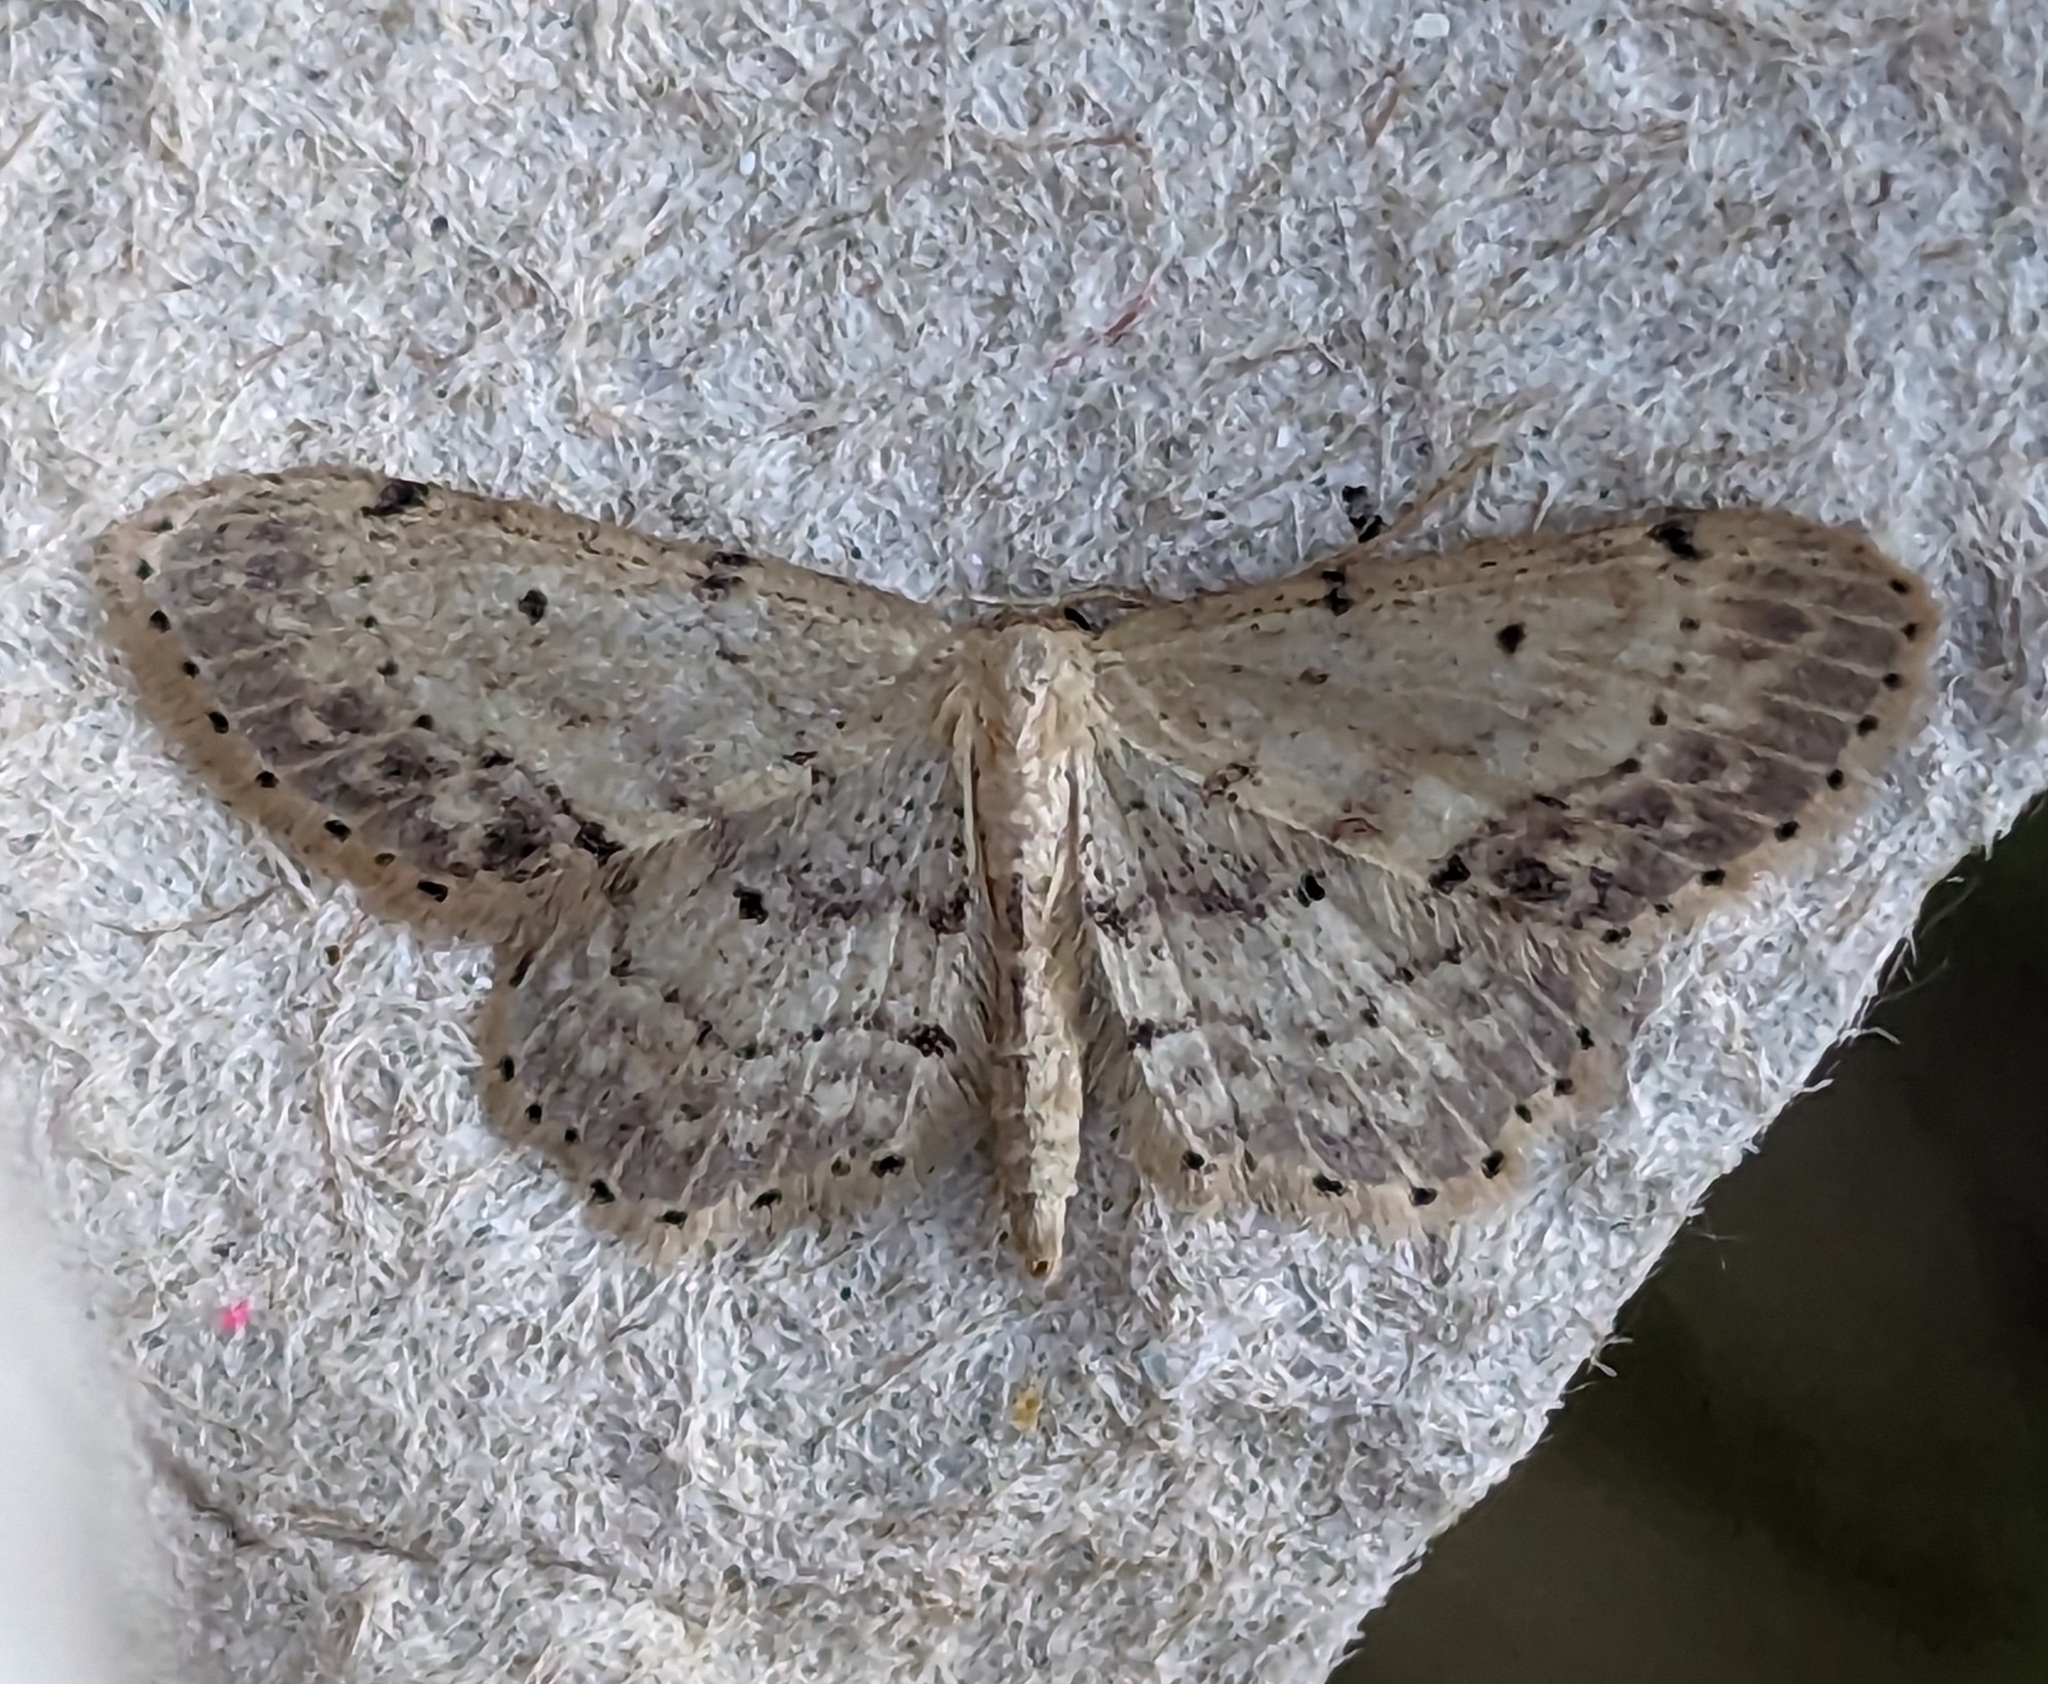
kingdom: Animalia
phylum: Arthropoda
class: Insecta
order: Lepidoptera
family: Geometridae
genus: Idaea
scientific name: Idaea dimidiata
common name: Single-dotted wave
